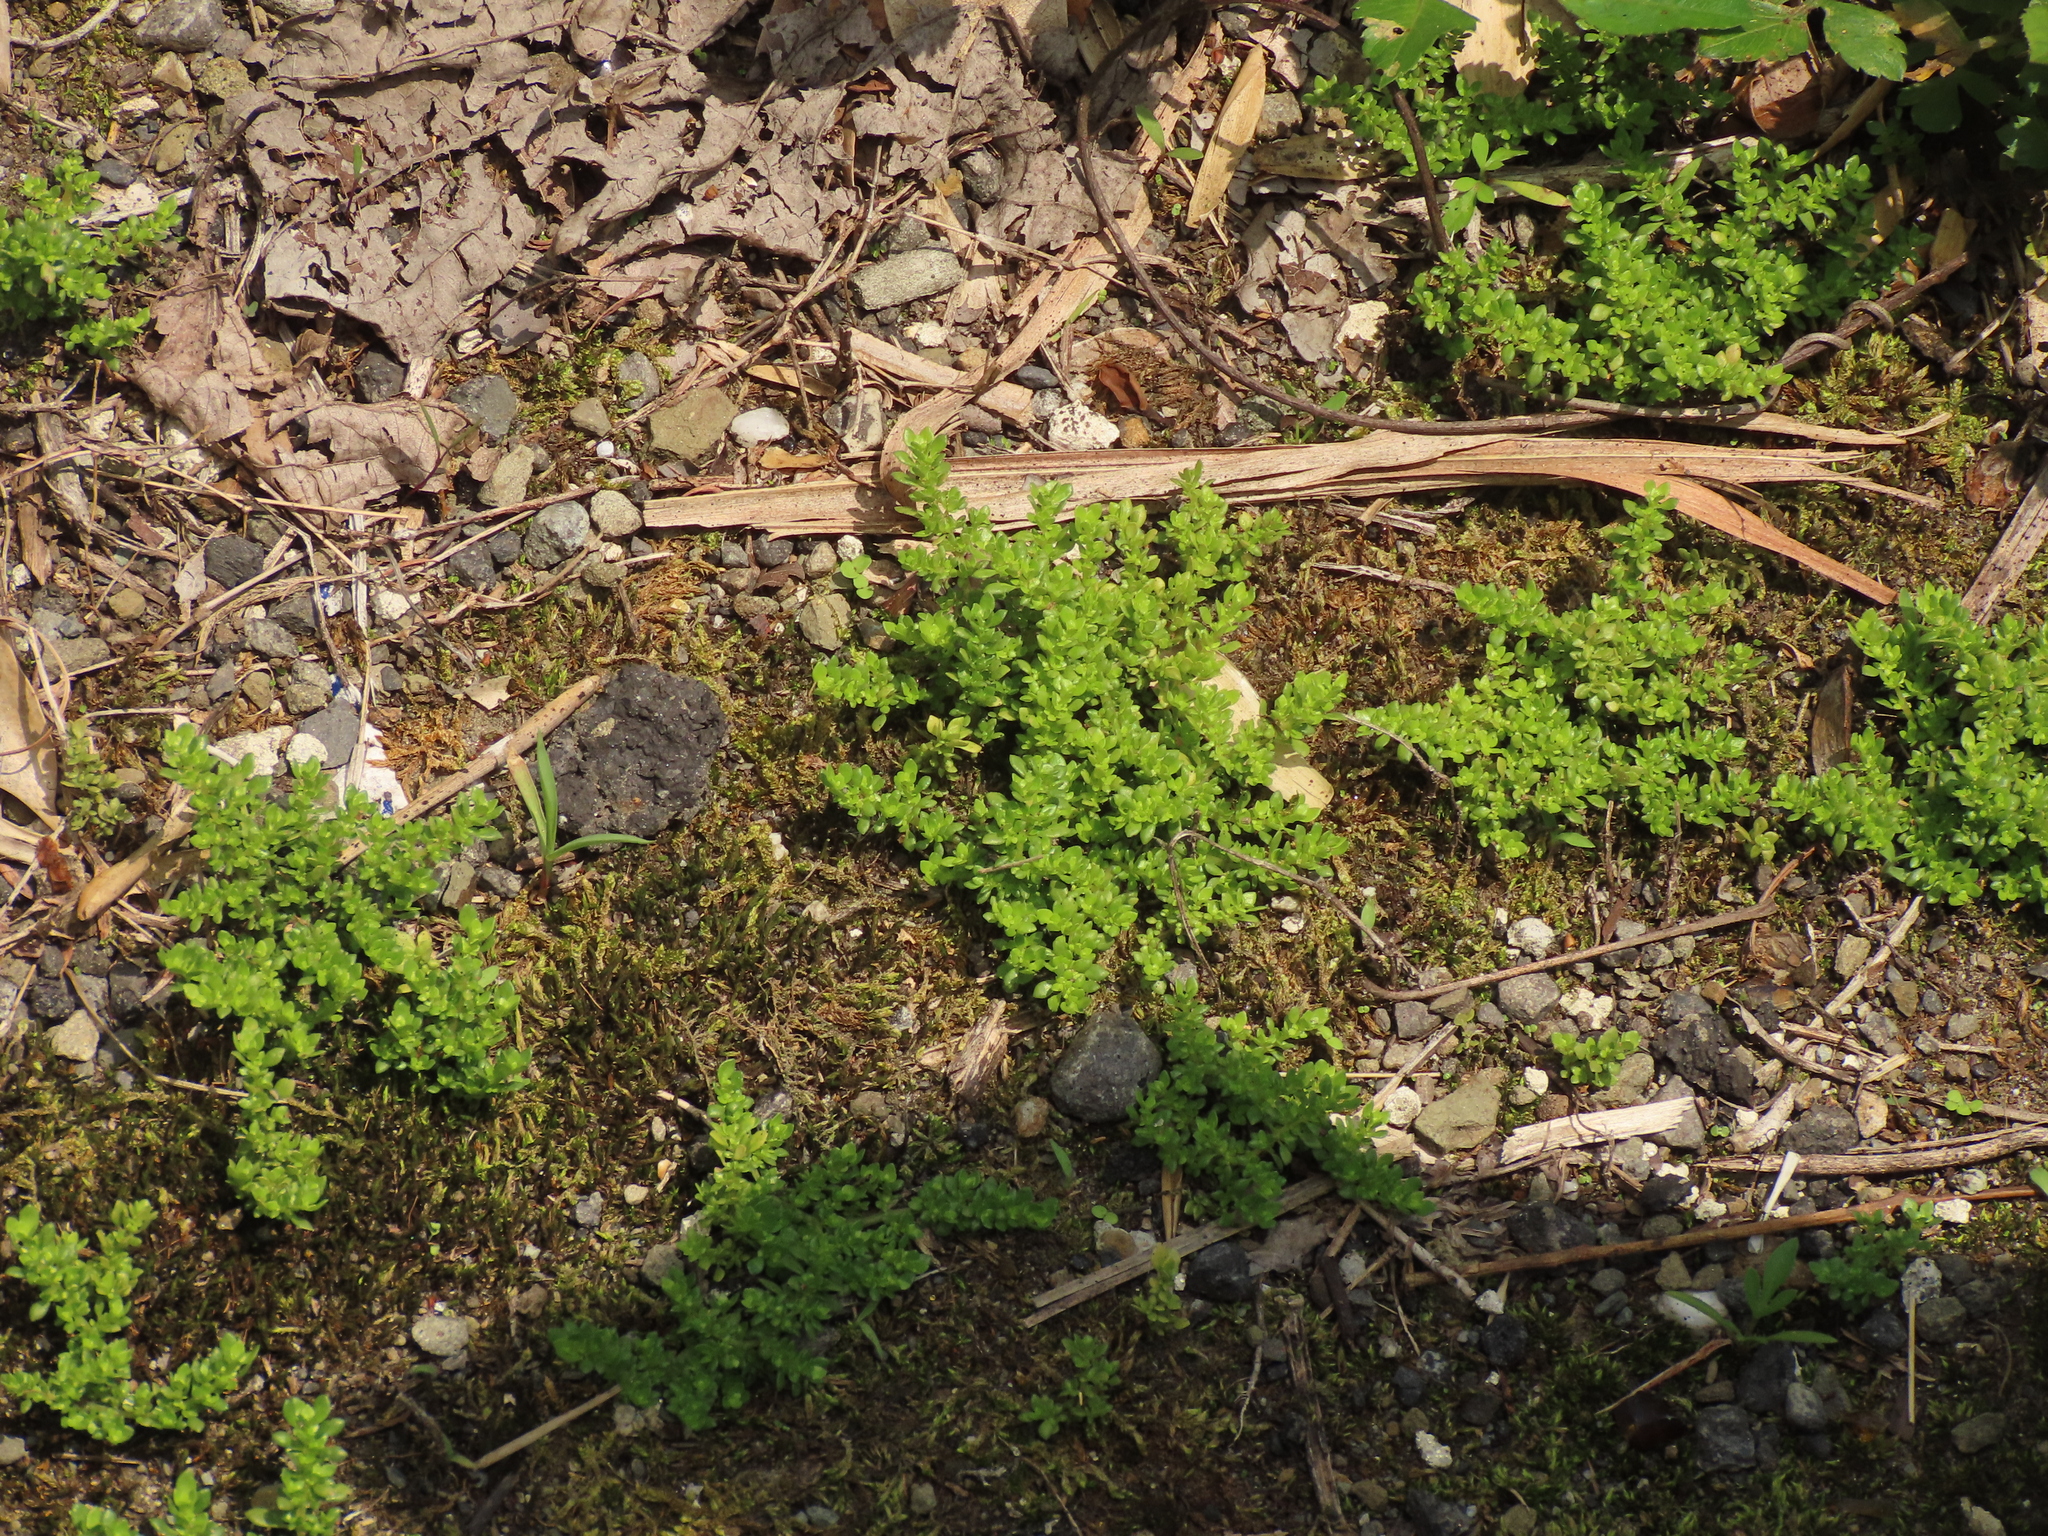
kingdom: Plantae
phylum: Tracheophyta
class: Magnoliopsida
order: Rosales
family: Urticaceae
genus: Pilea
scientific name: Pilea microphylla
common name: Artillery-plant
